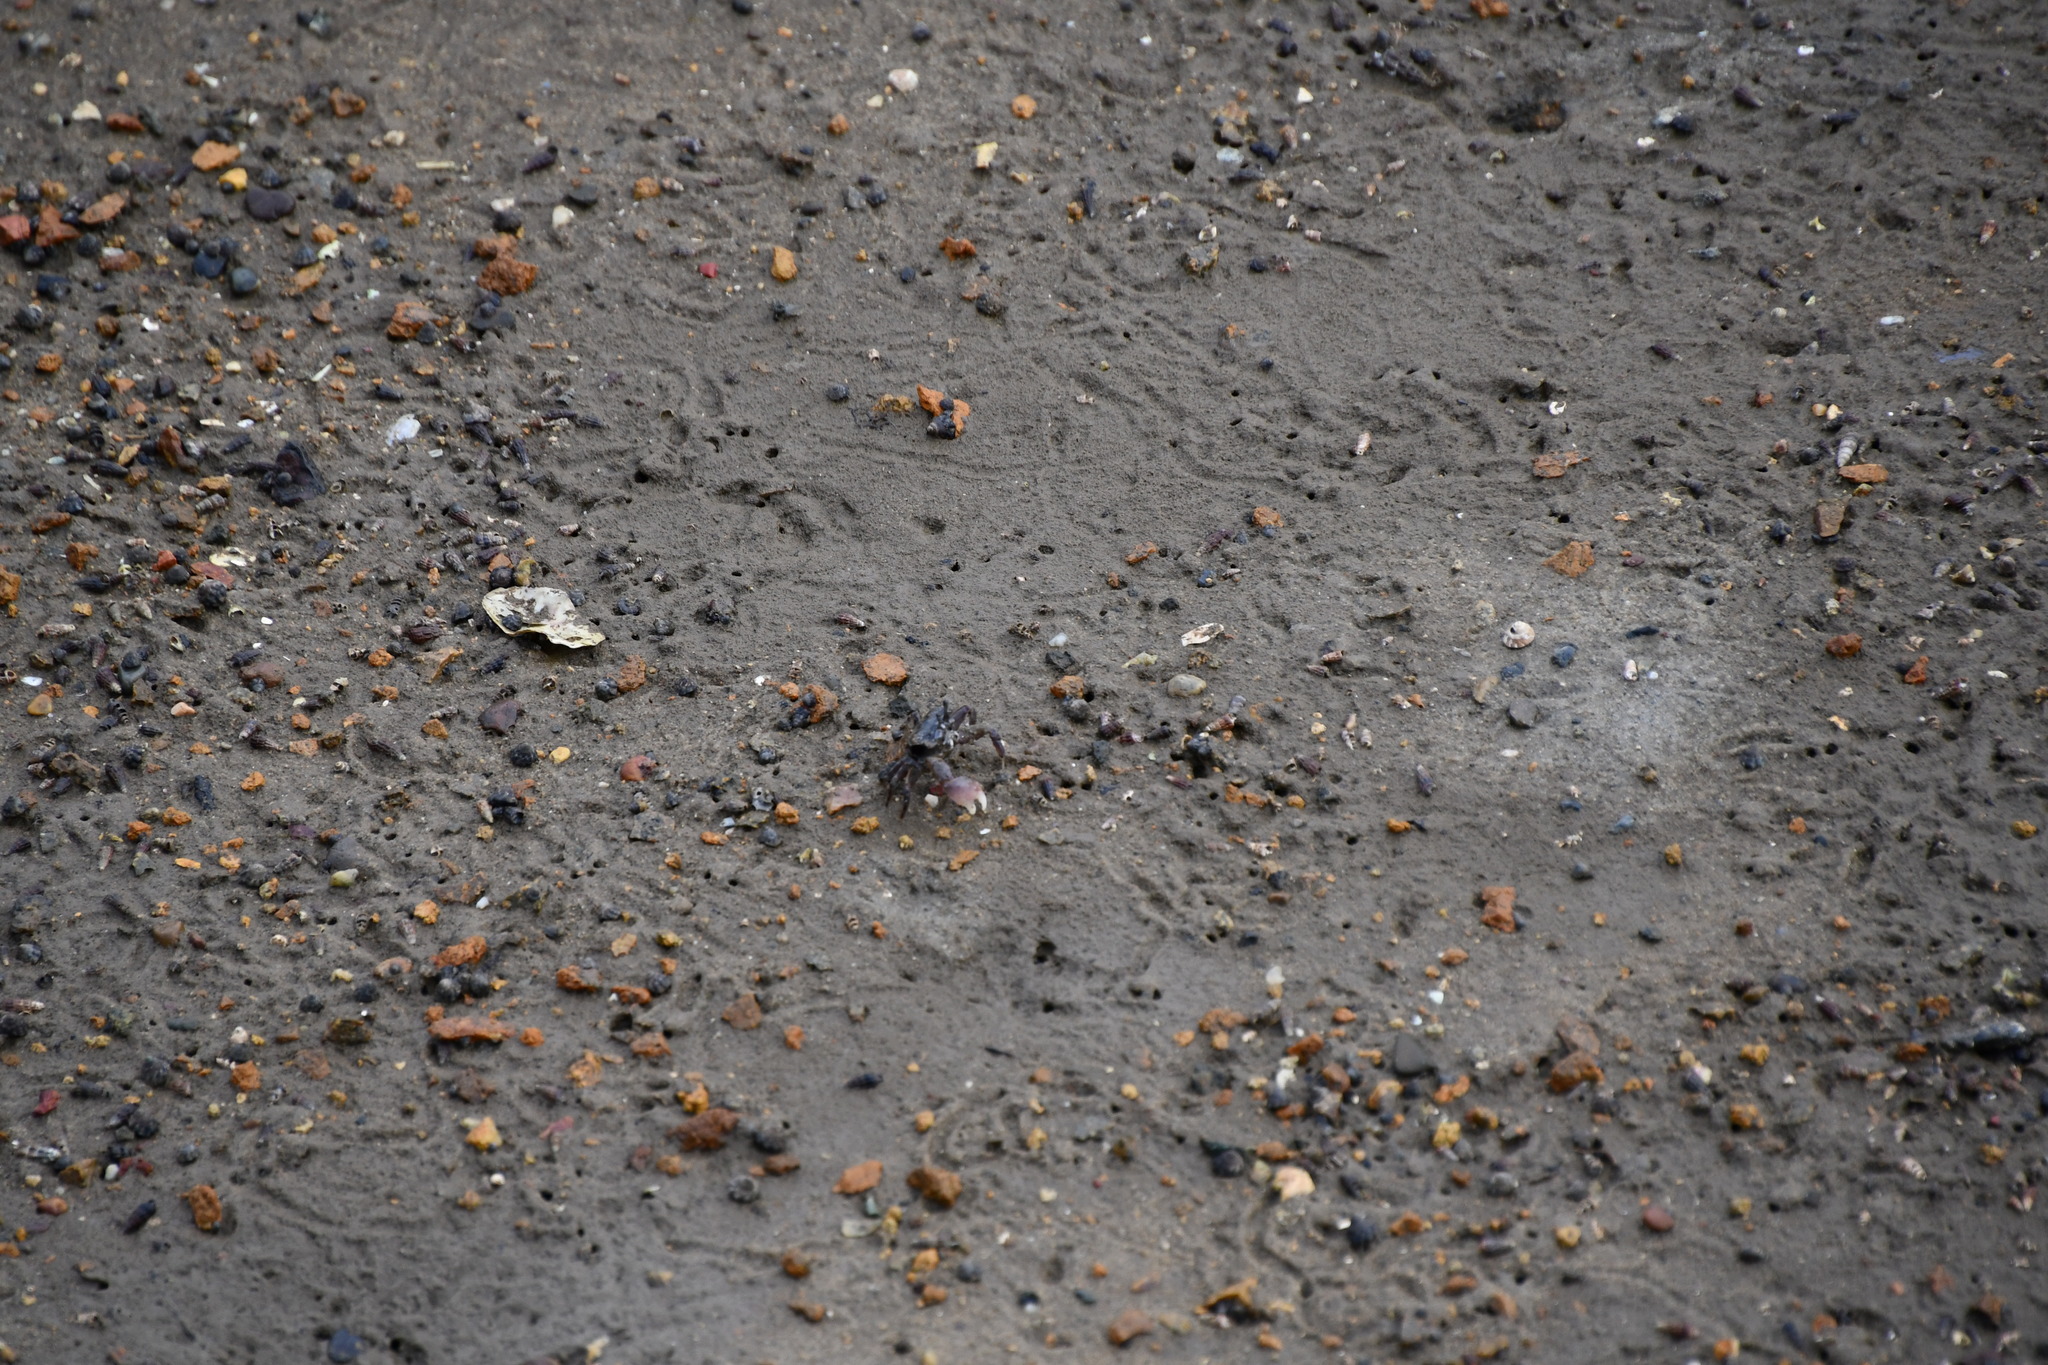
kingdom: Animalia
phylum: Arthropoda
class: Malacostraca
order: Decapoda
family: Heloeciidae
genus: Heloecius
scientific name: Heloecius cordiformis
